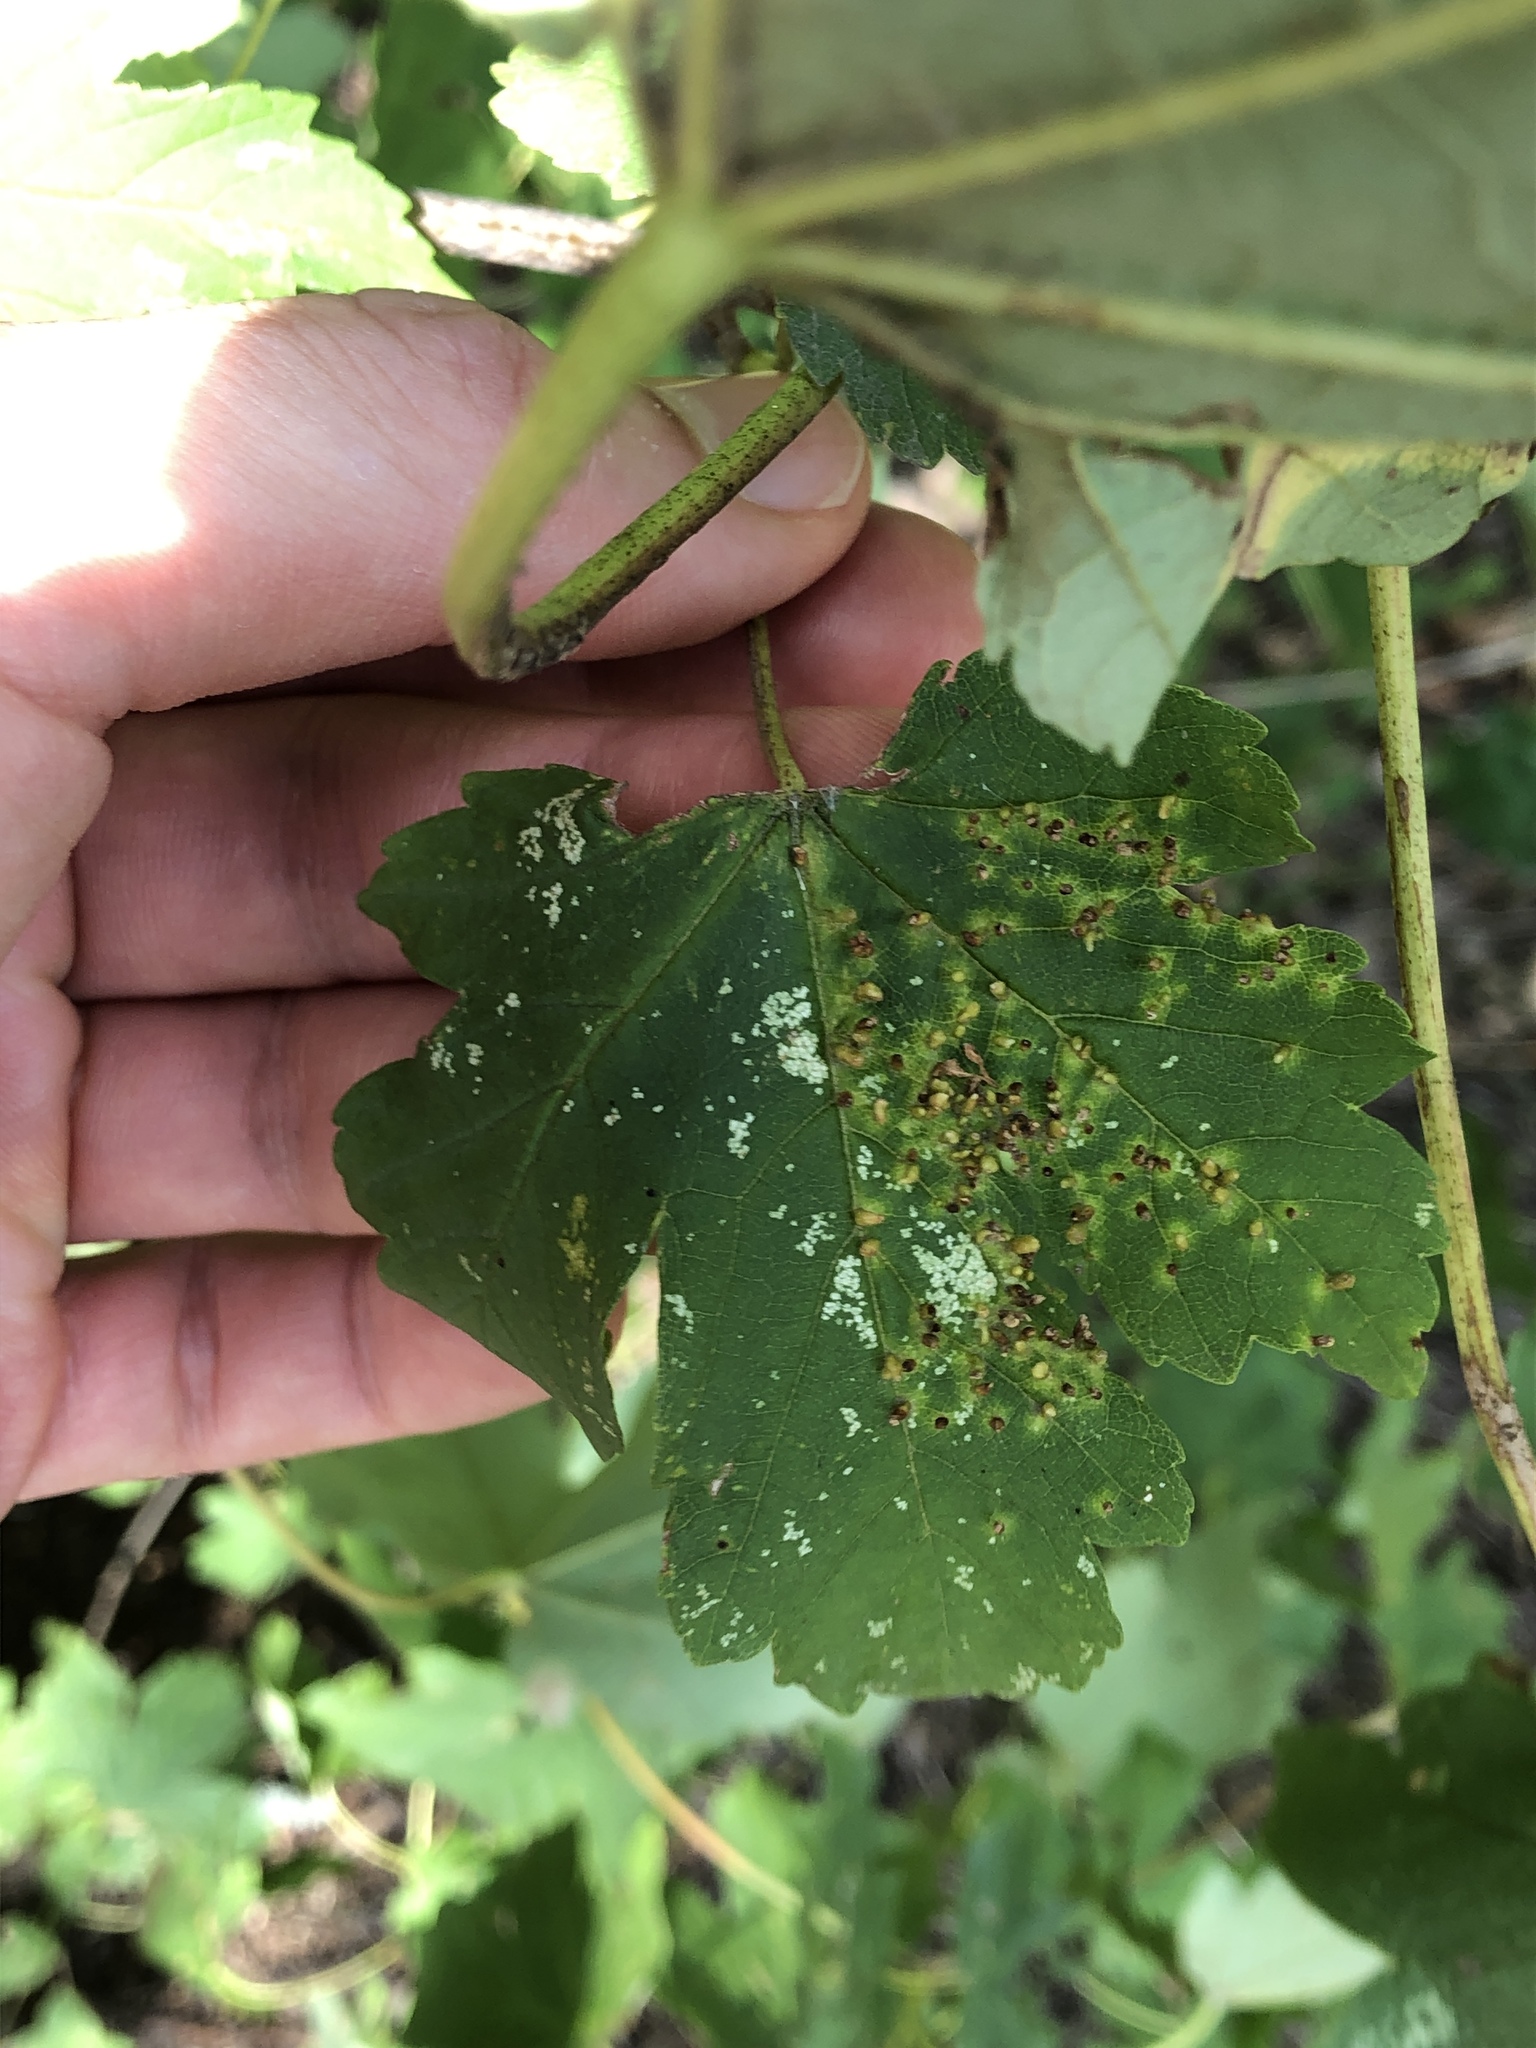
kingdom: Animalia
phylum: Arthropoda
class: Arachnida
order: Trombidiformes
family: Eriophyidae
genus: Aceria
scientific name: Aceria myriadeum
